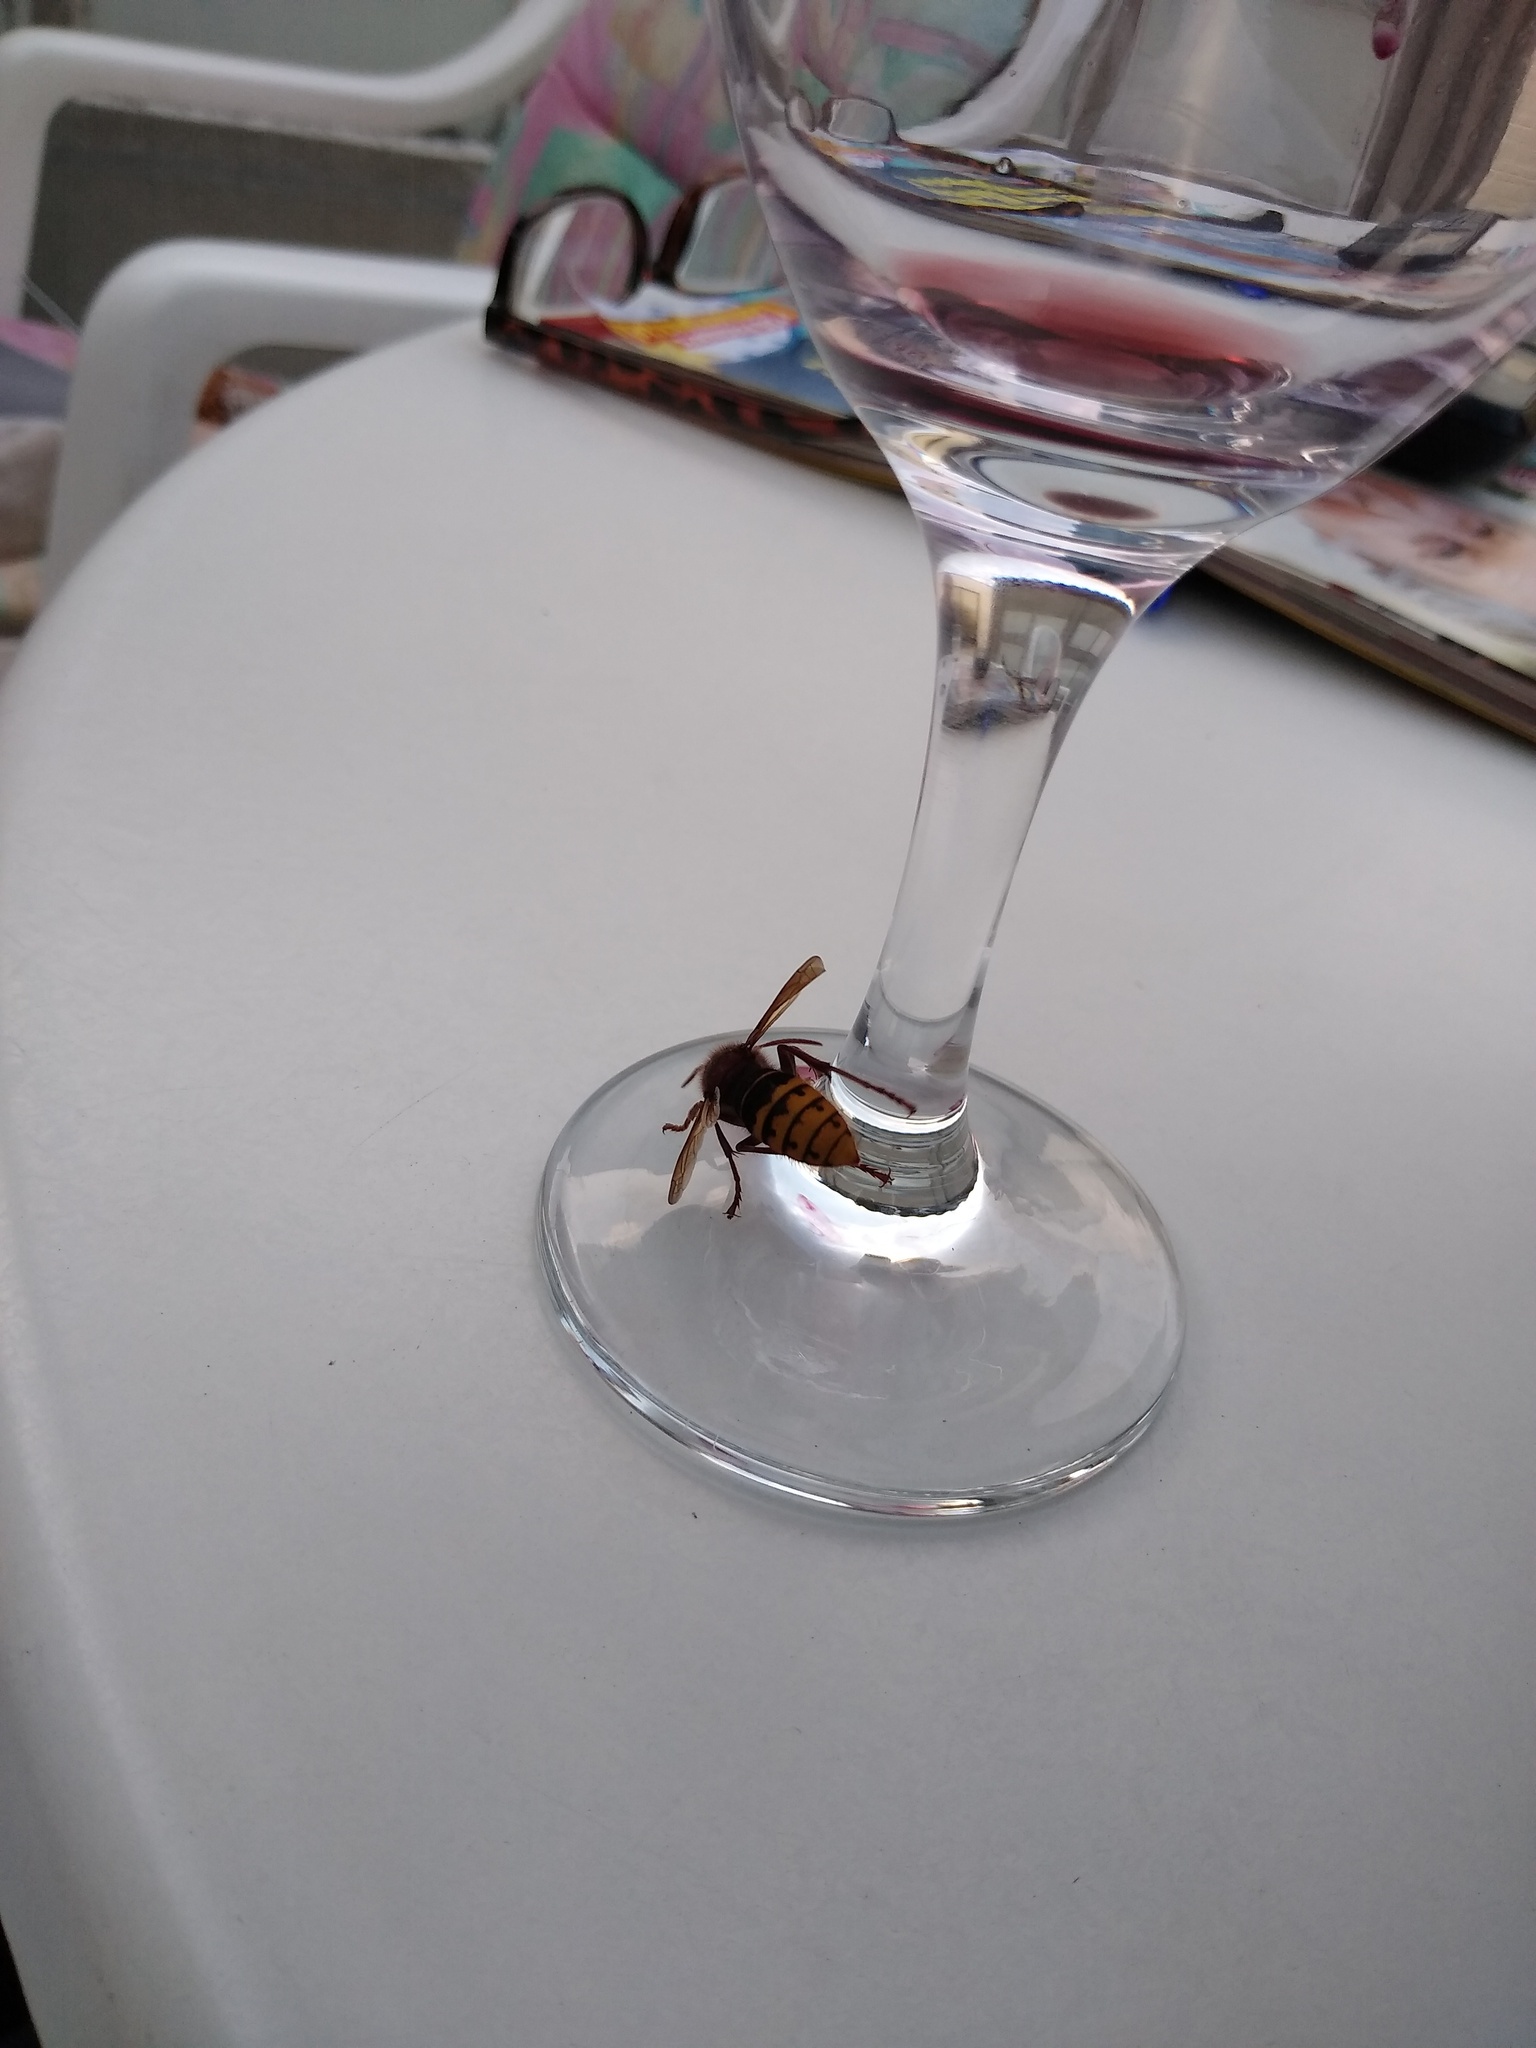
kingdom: Animalia
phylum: Arthropoda
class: Insecta
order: Hymenoptera
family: Vespidae
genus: Vespa
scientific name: Vespa crabro
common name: Hornet
